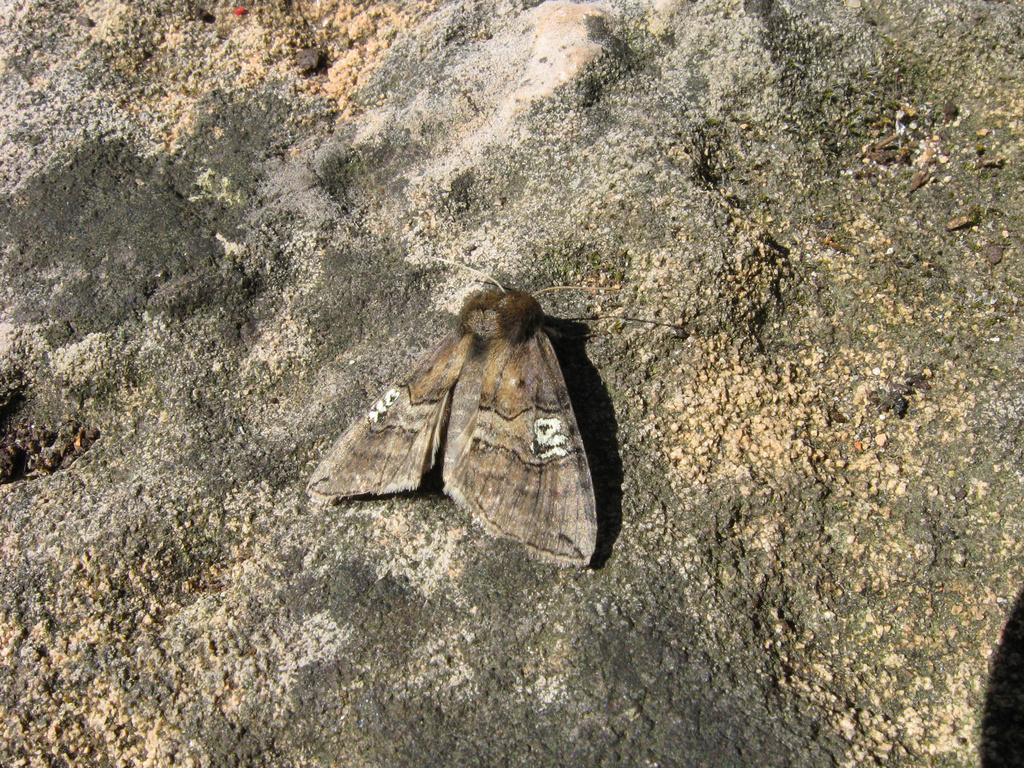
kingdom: Animalia
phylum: Arthropoda
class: Insecta
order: Lepidoptera
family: Drepanidae
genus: Tethea
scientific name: Tethea ocularis
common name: Figure of eighty
